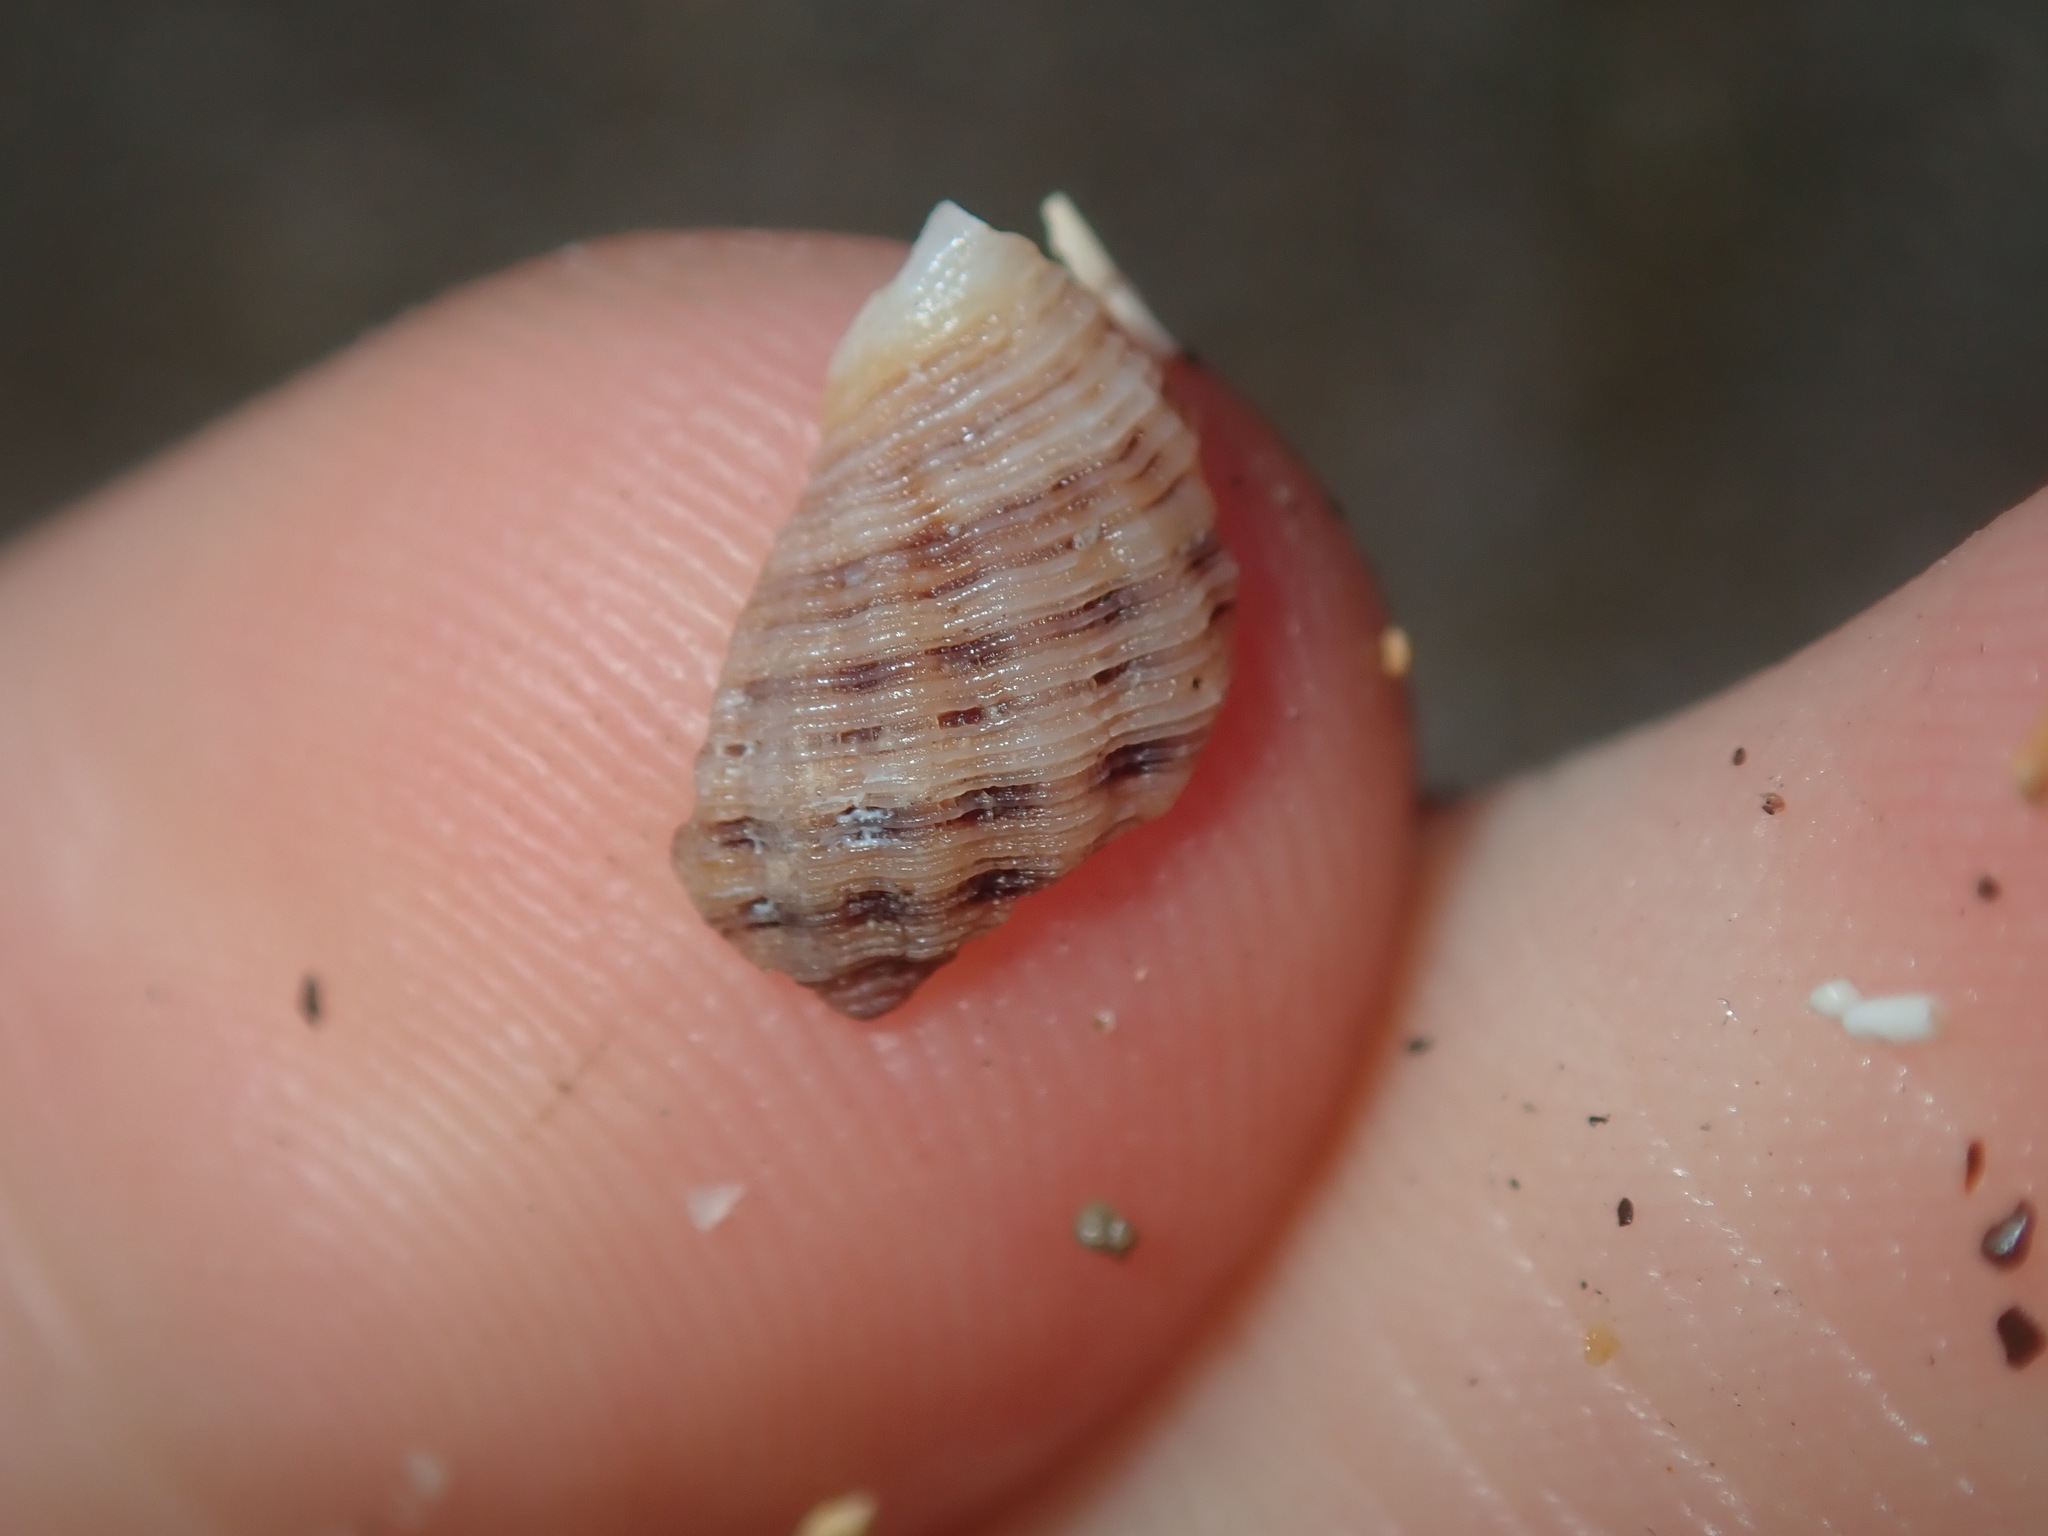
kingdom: Animalia
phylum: Mollusca
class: Gastropoda
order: Neogastropoda
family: Muricidae
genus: Agnewia
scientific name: Agnewia tritoniformis
